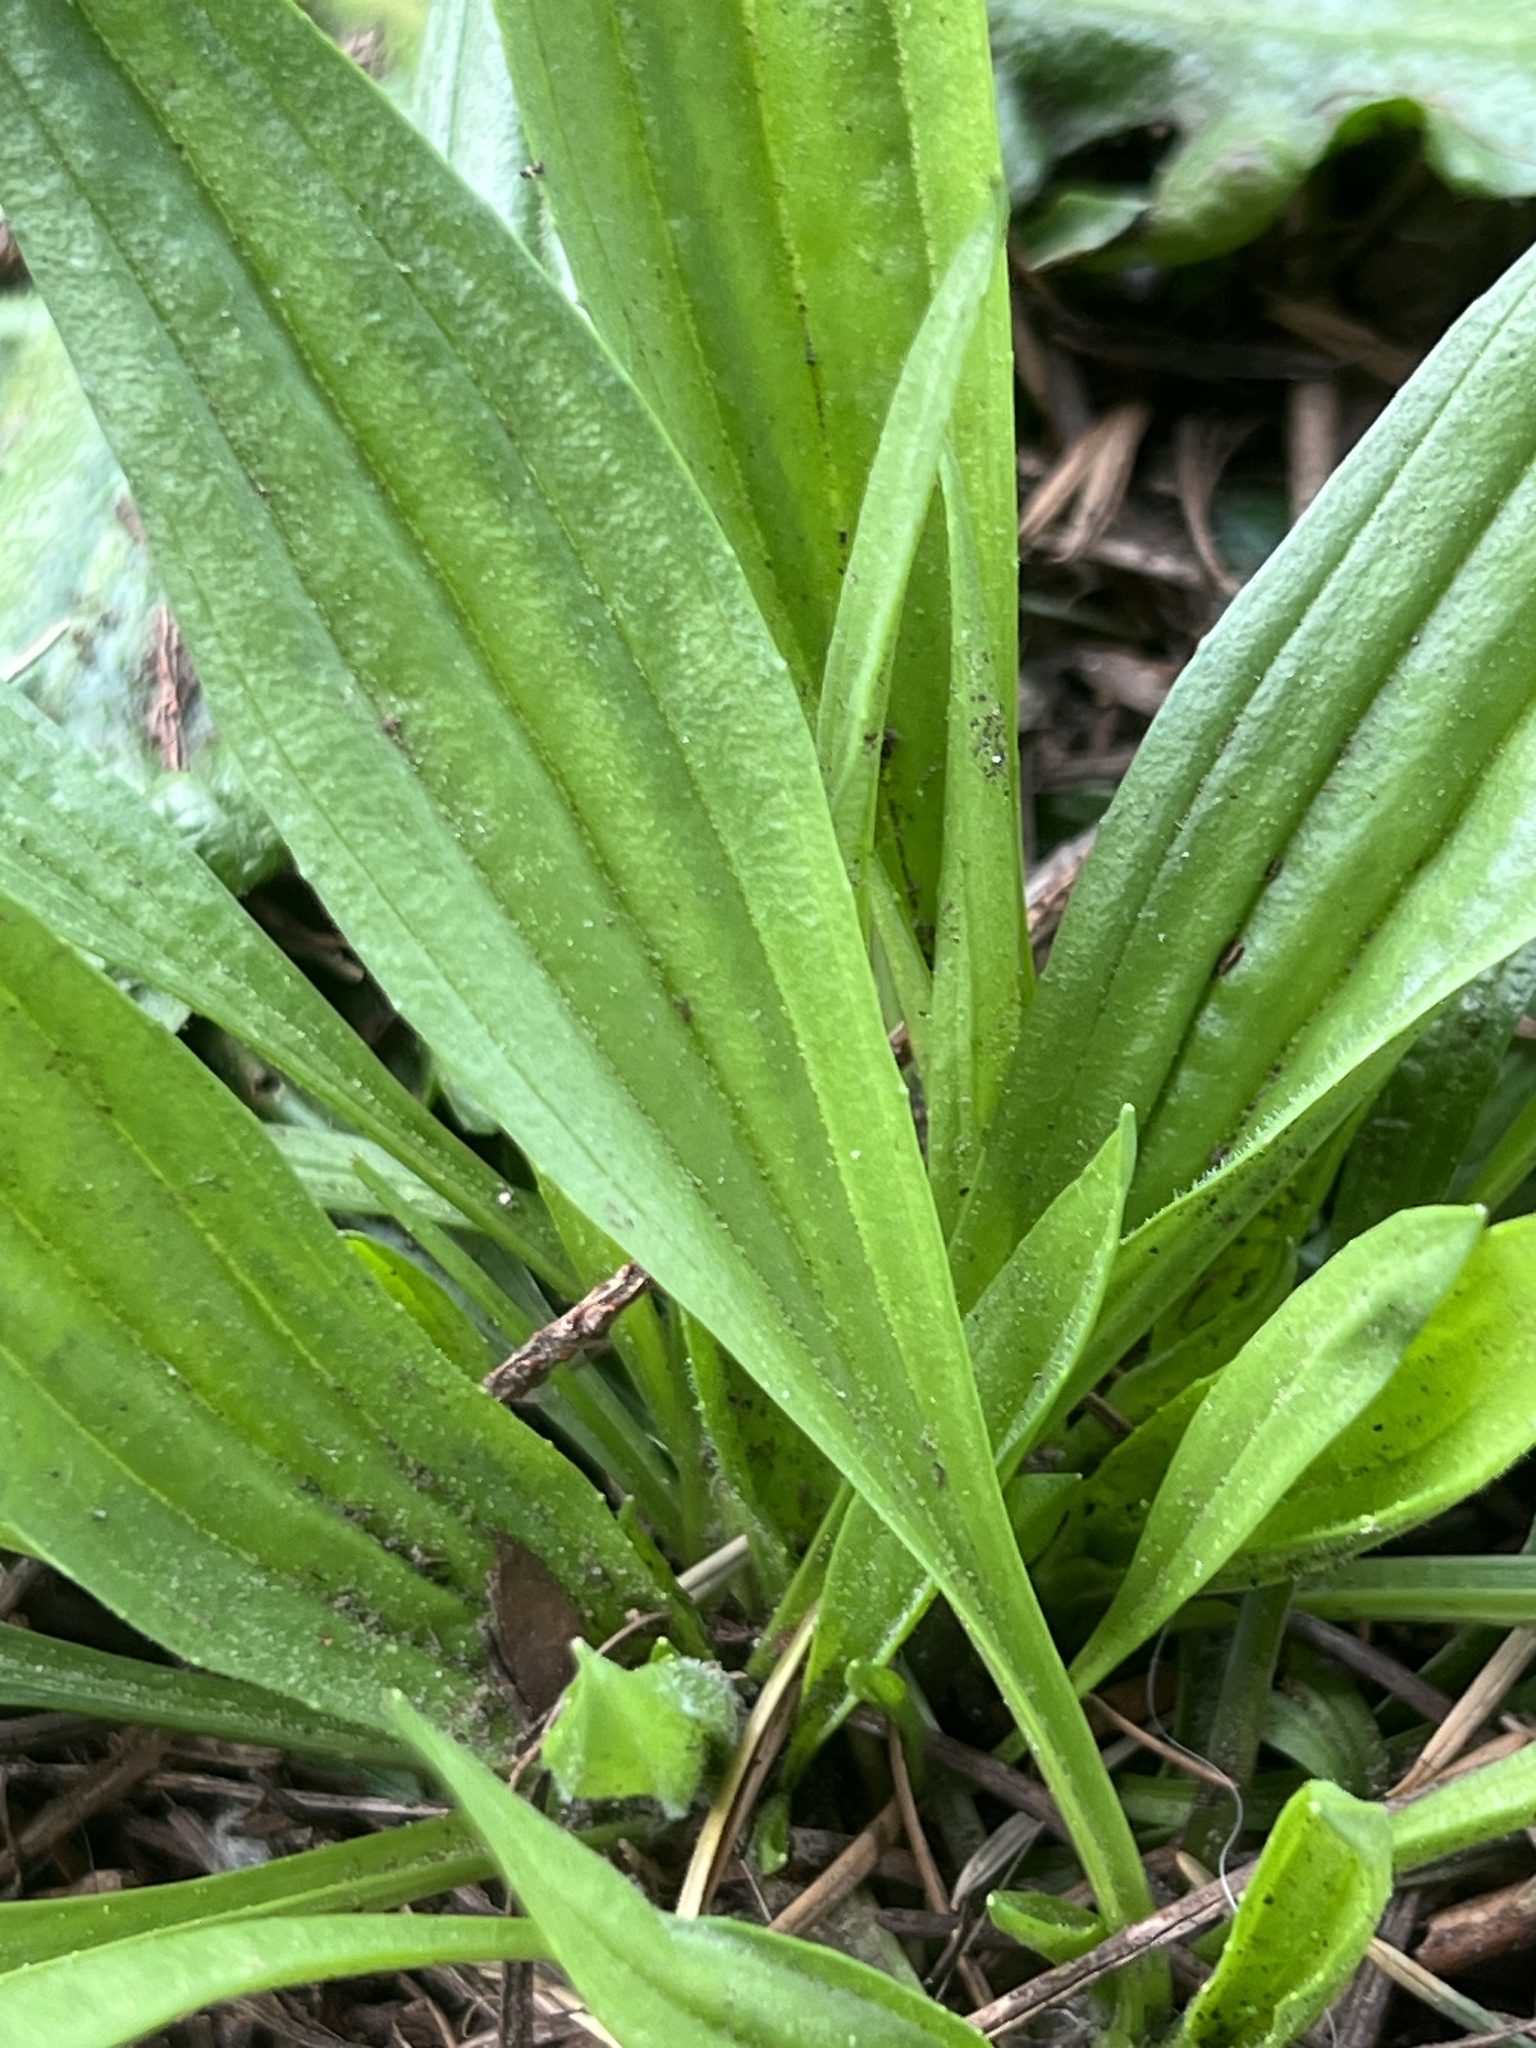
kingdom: Plantae
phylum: Tracheophyta
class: Magnoliopsida
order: Lamiales
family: Plantaginaceae
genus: Plantago
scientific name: Plantago lanceolata
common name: Ribwort plantain
